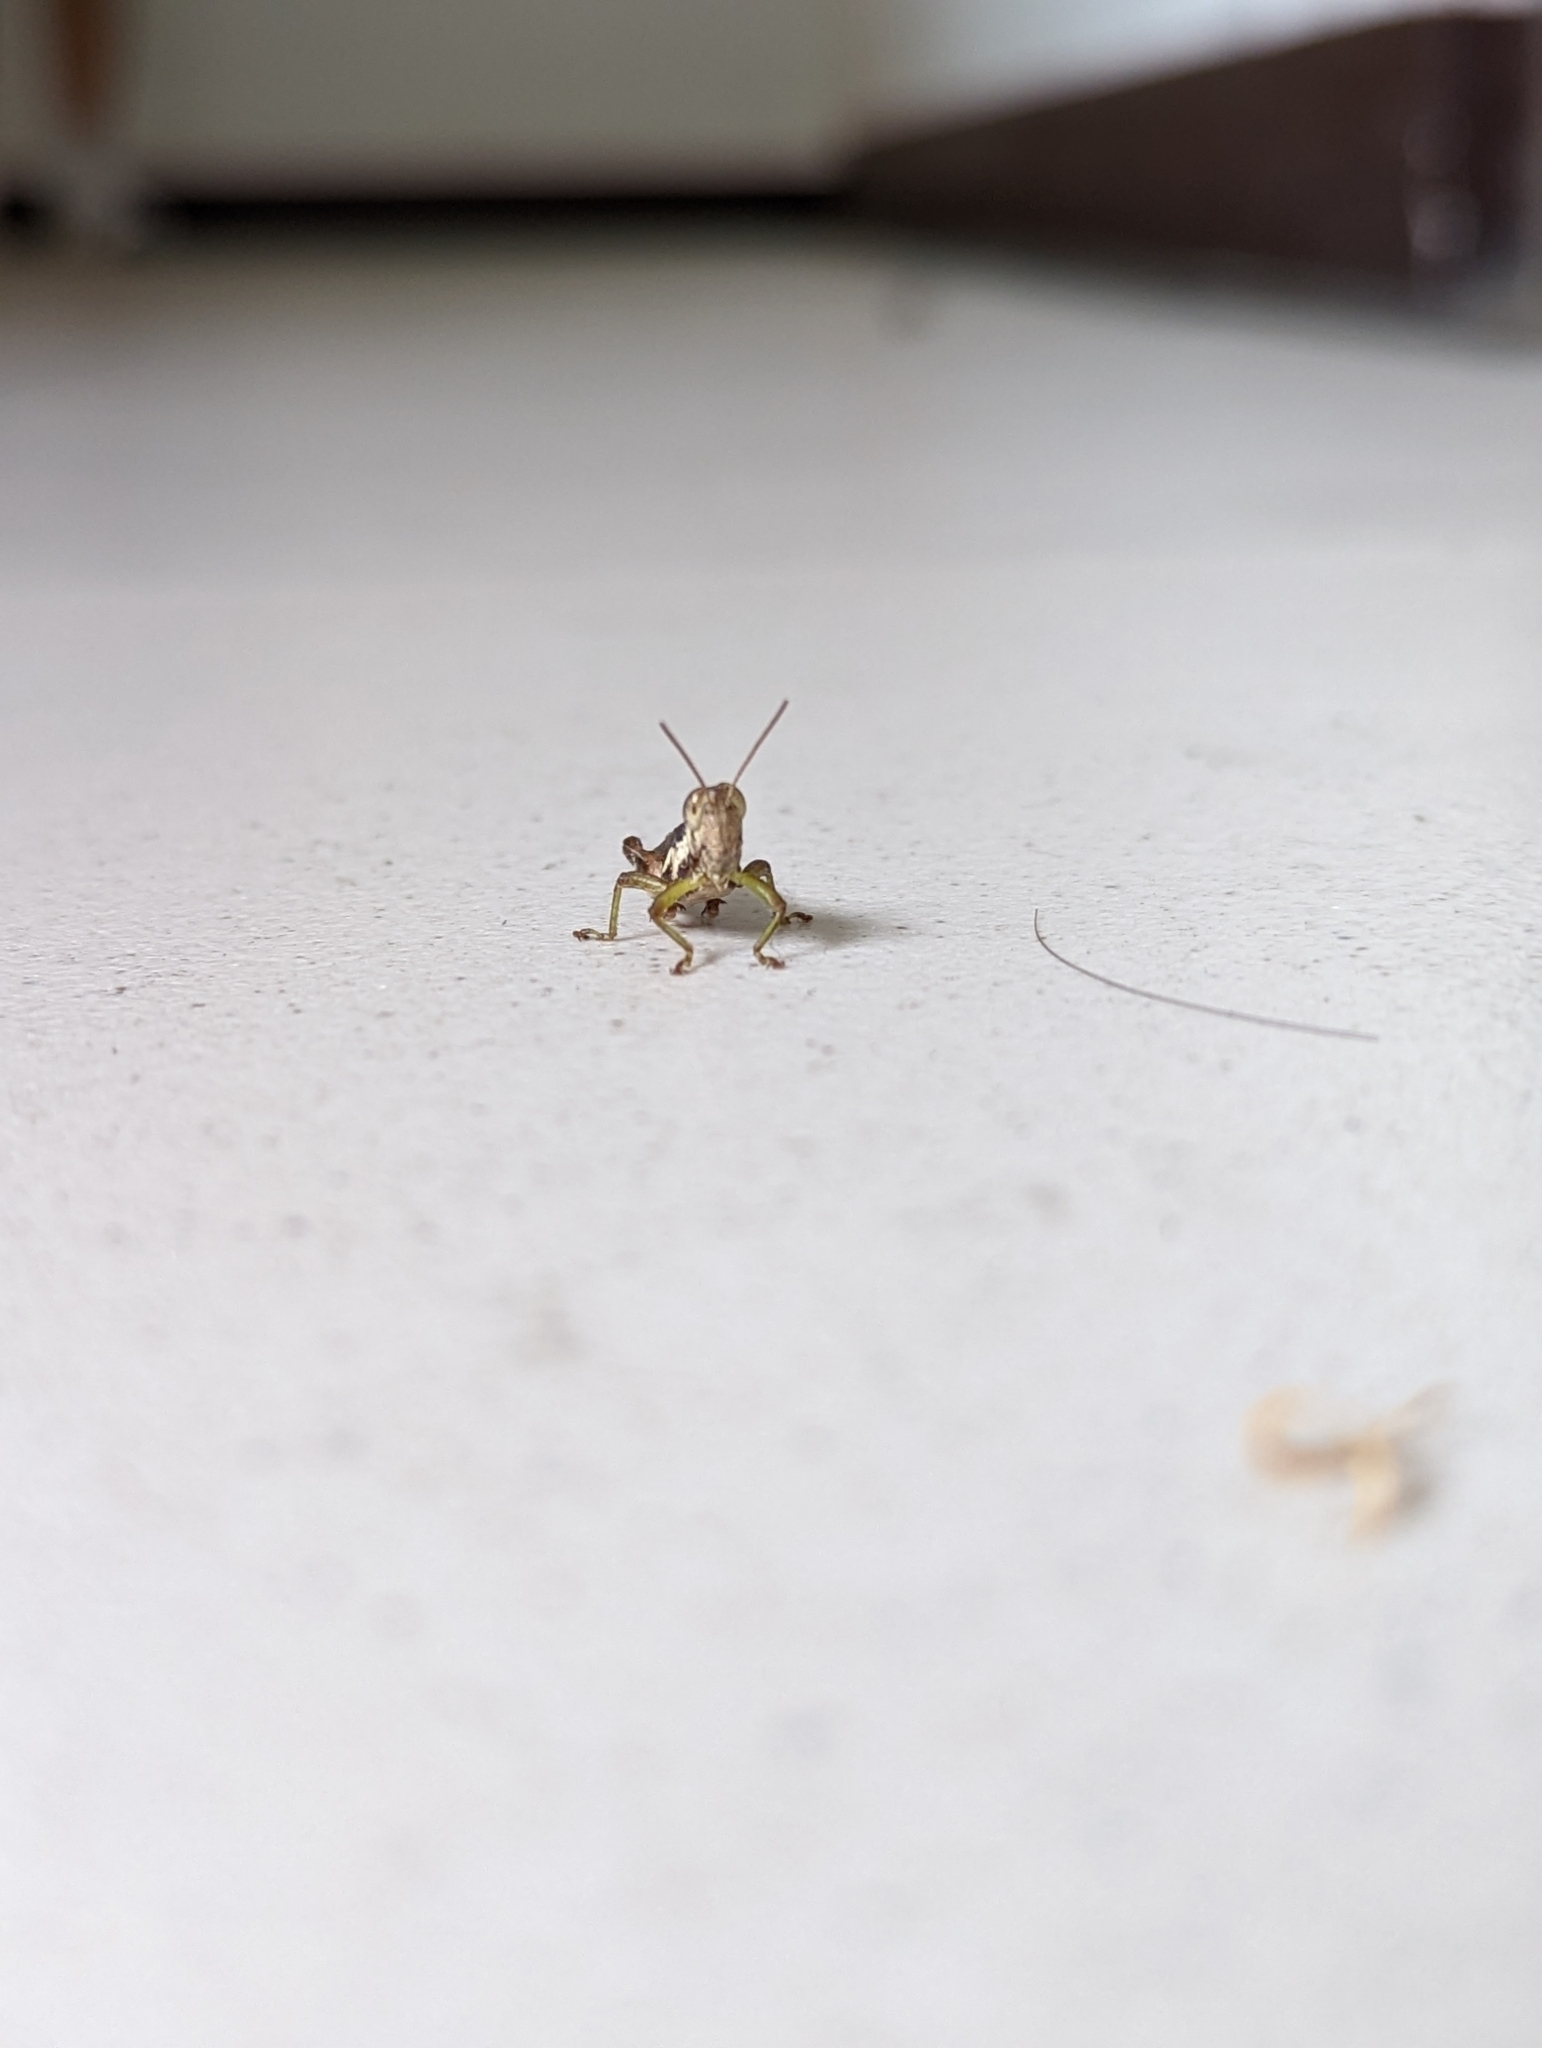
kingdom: Animalia
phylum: Arthropoda
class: Insecta
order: Orthoptera
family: Acrididae
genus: Pseudoxya
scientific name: Pseudoxya diminuta
